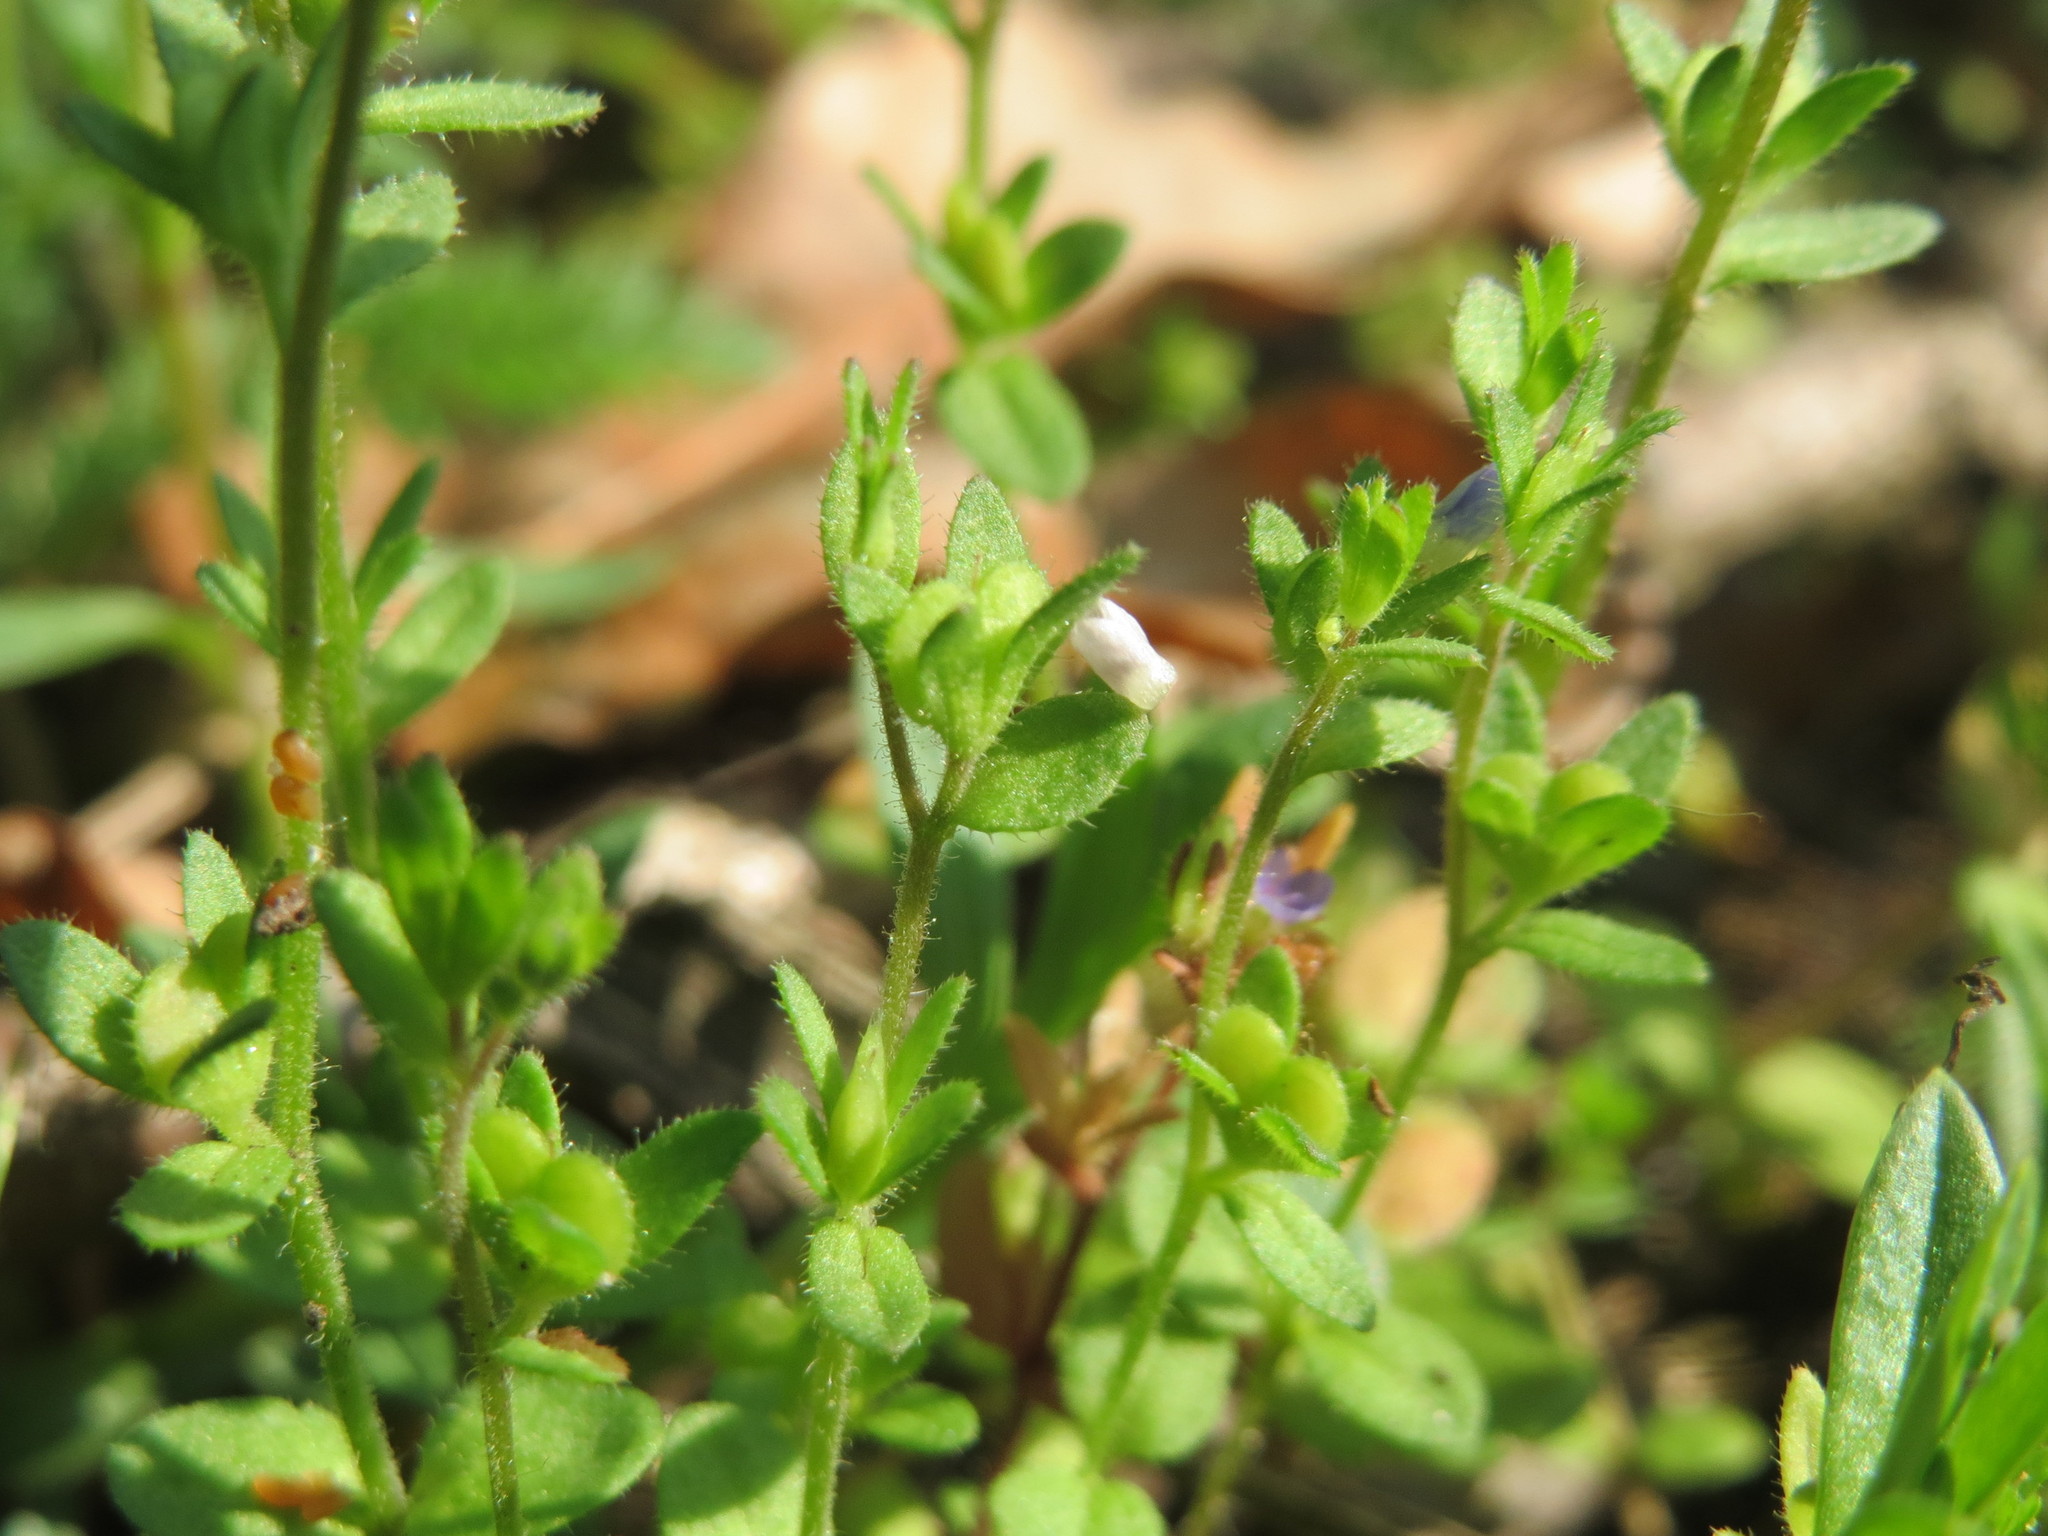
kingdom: Plantae
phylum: Tracheophyta
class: Magnoliopsida
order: Lamiales
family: Plantaginaceae
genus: Veronica
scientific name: Veronica arvensis
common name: Corn speedwell
